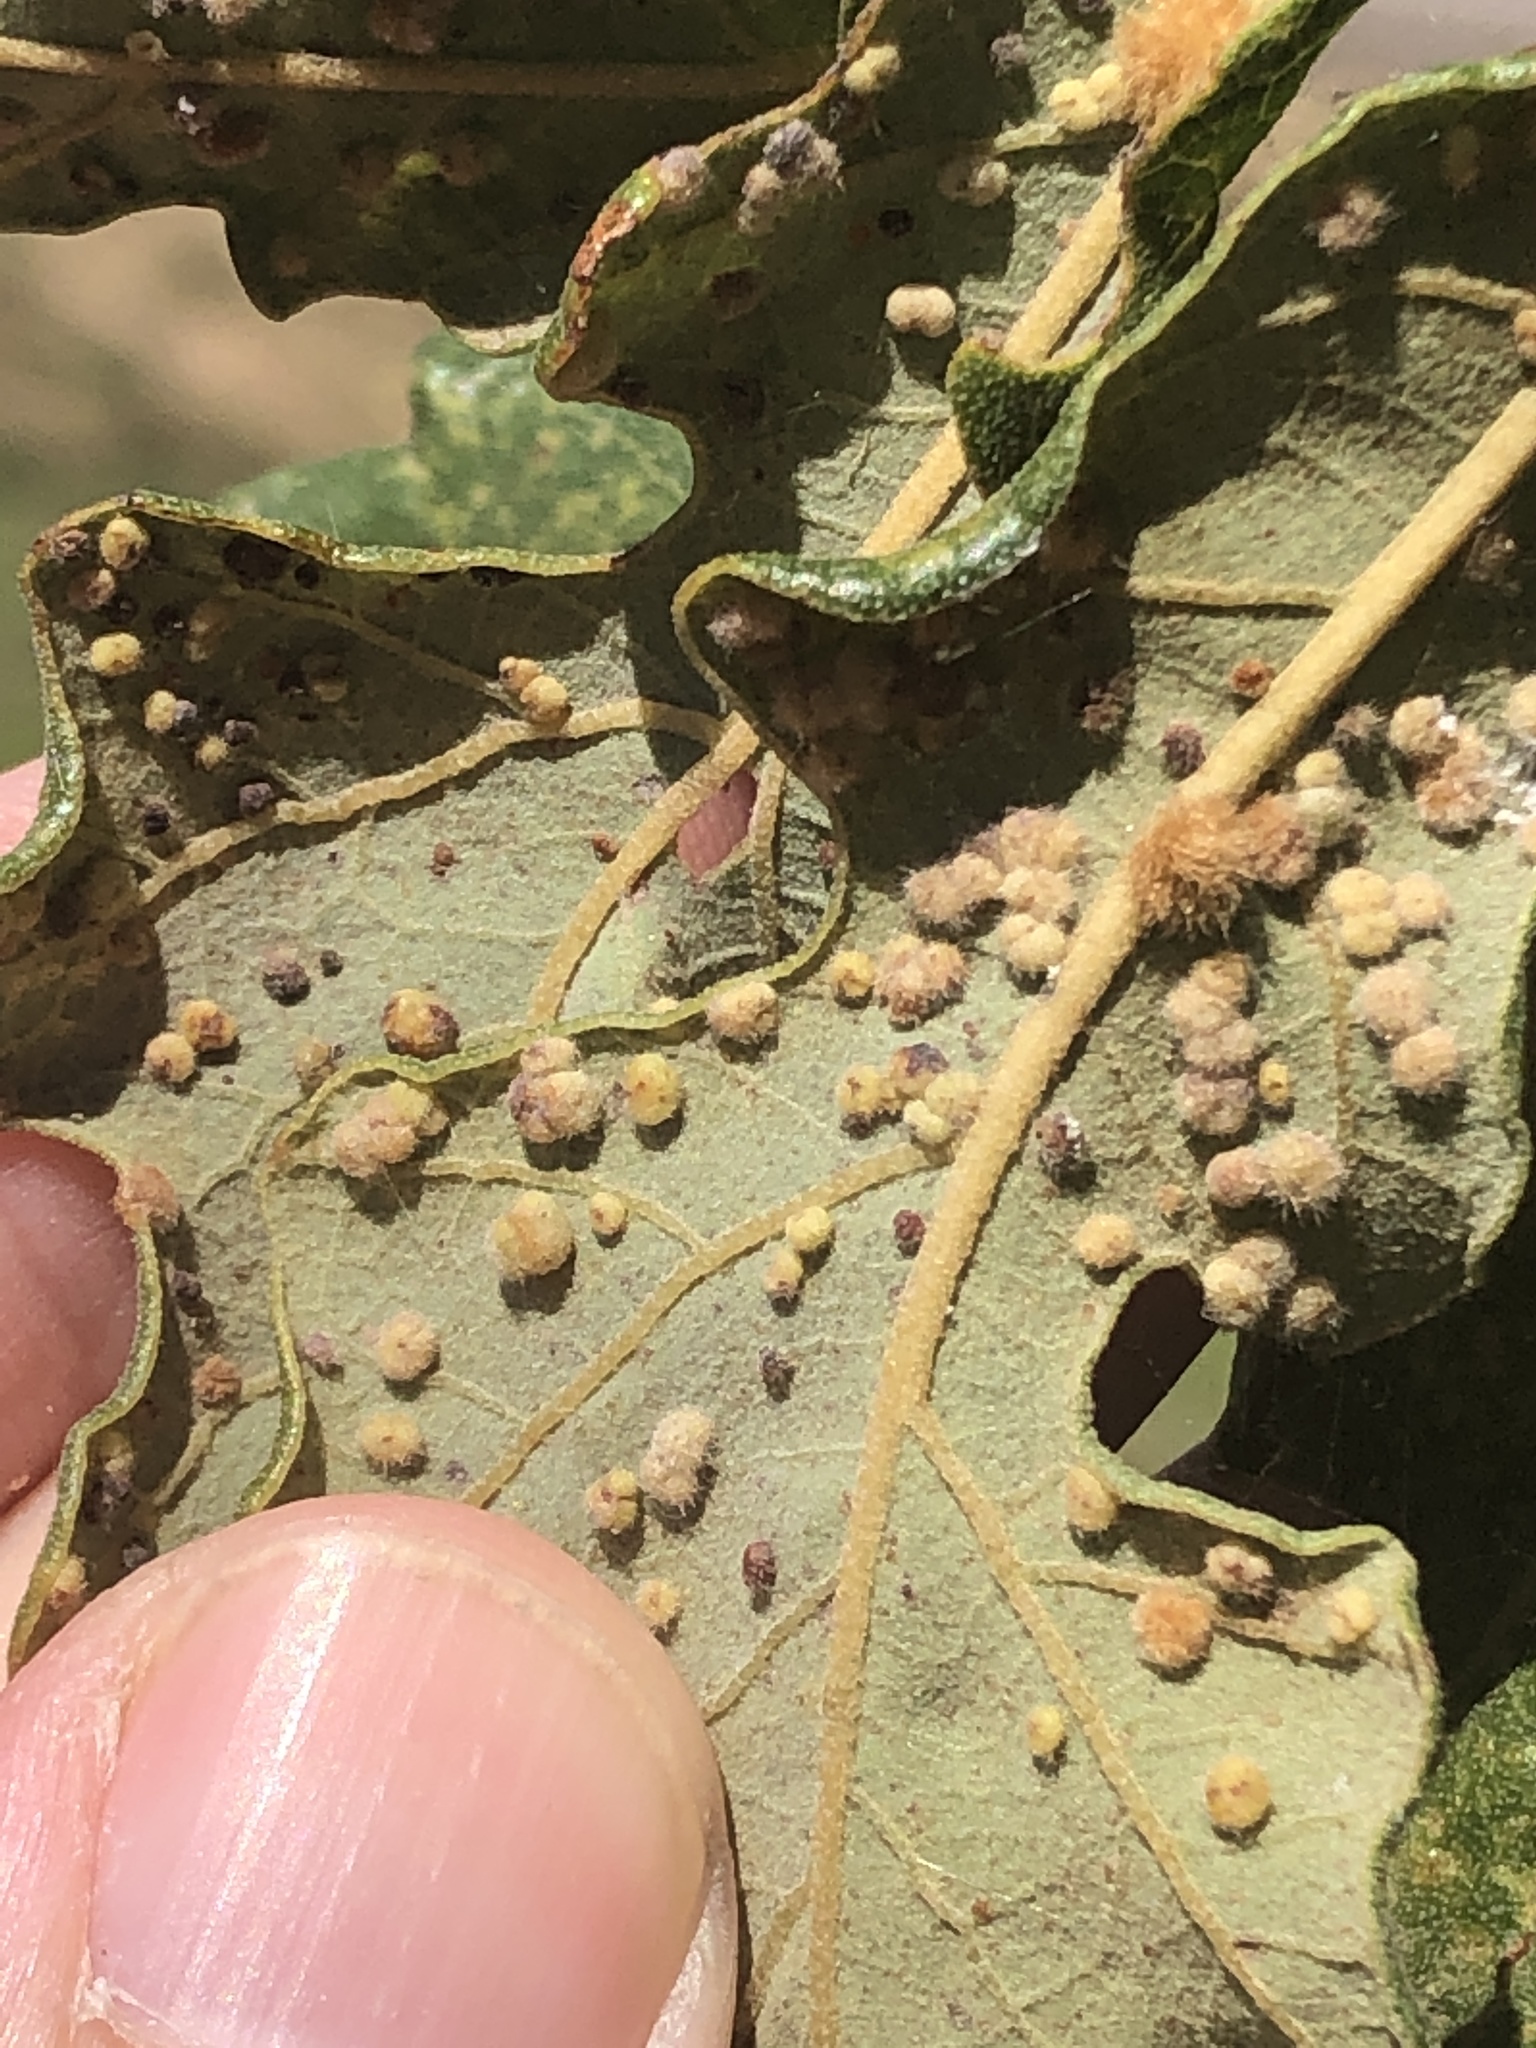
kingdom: Animalia
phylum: Arthropoda
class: Insecta
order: Hymenoptera
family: Cynipidae
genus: Neuroterus
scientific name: Neuroterus quercusverrucarum
